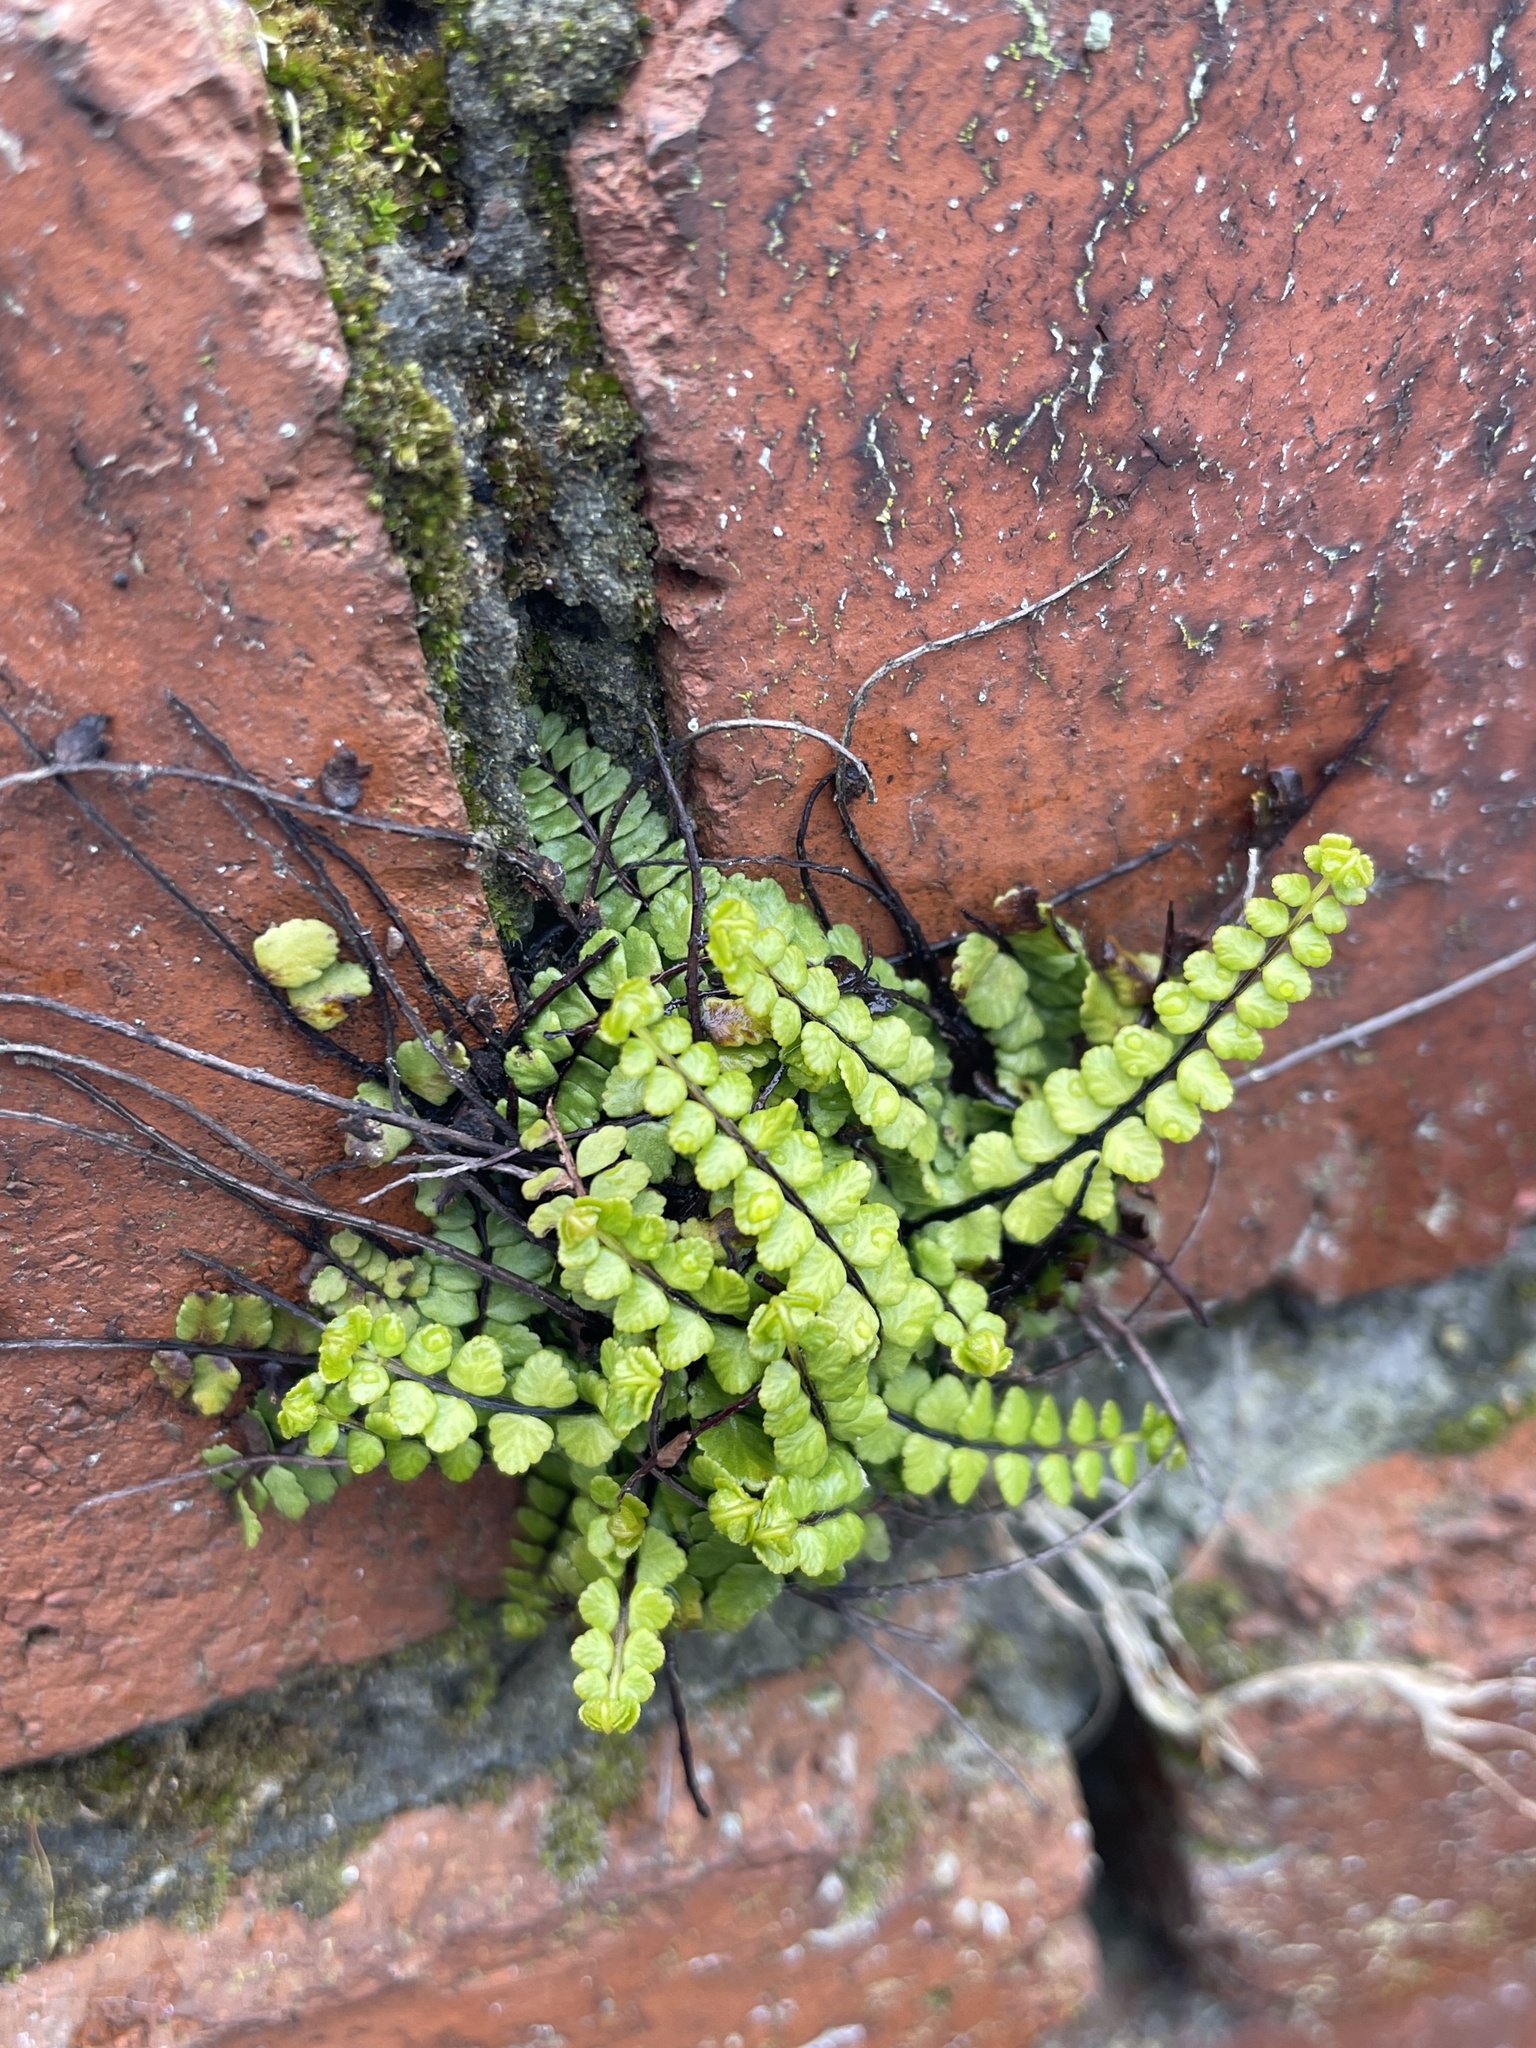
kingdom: Plantae
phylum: Tracheophyta
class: Polypodiopsida
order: Polypodiales
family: Aspleniaceae
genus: Asplenium
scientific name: Asplenium trichomanes
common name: Maidenhair spleenwort
